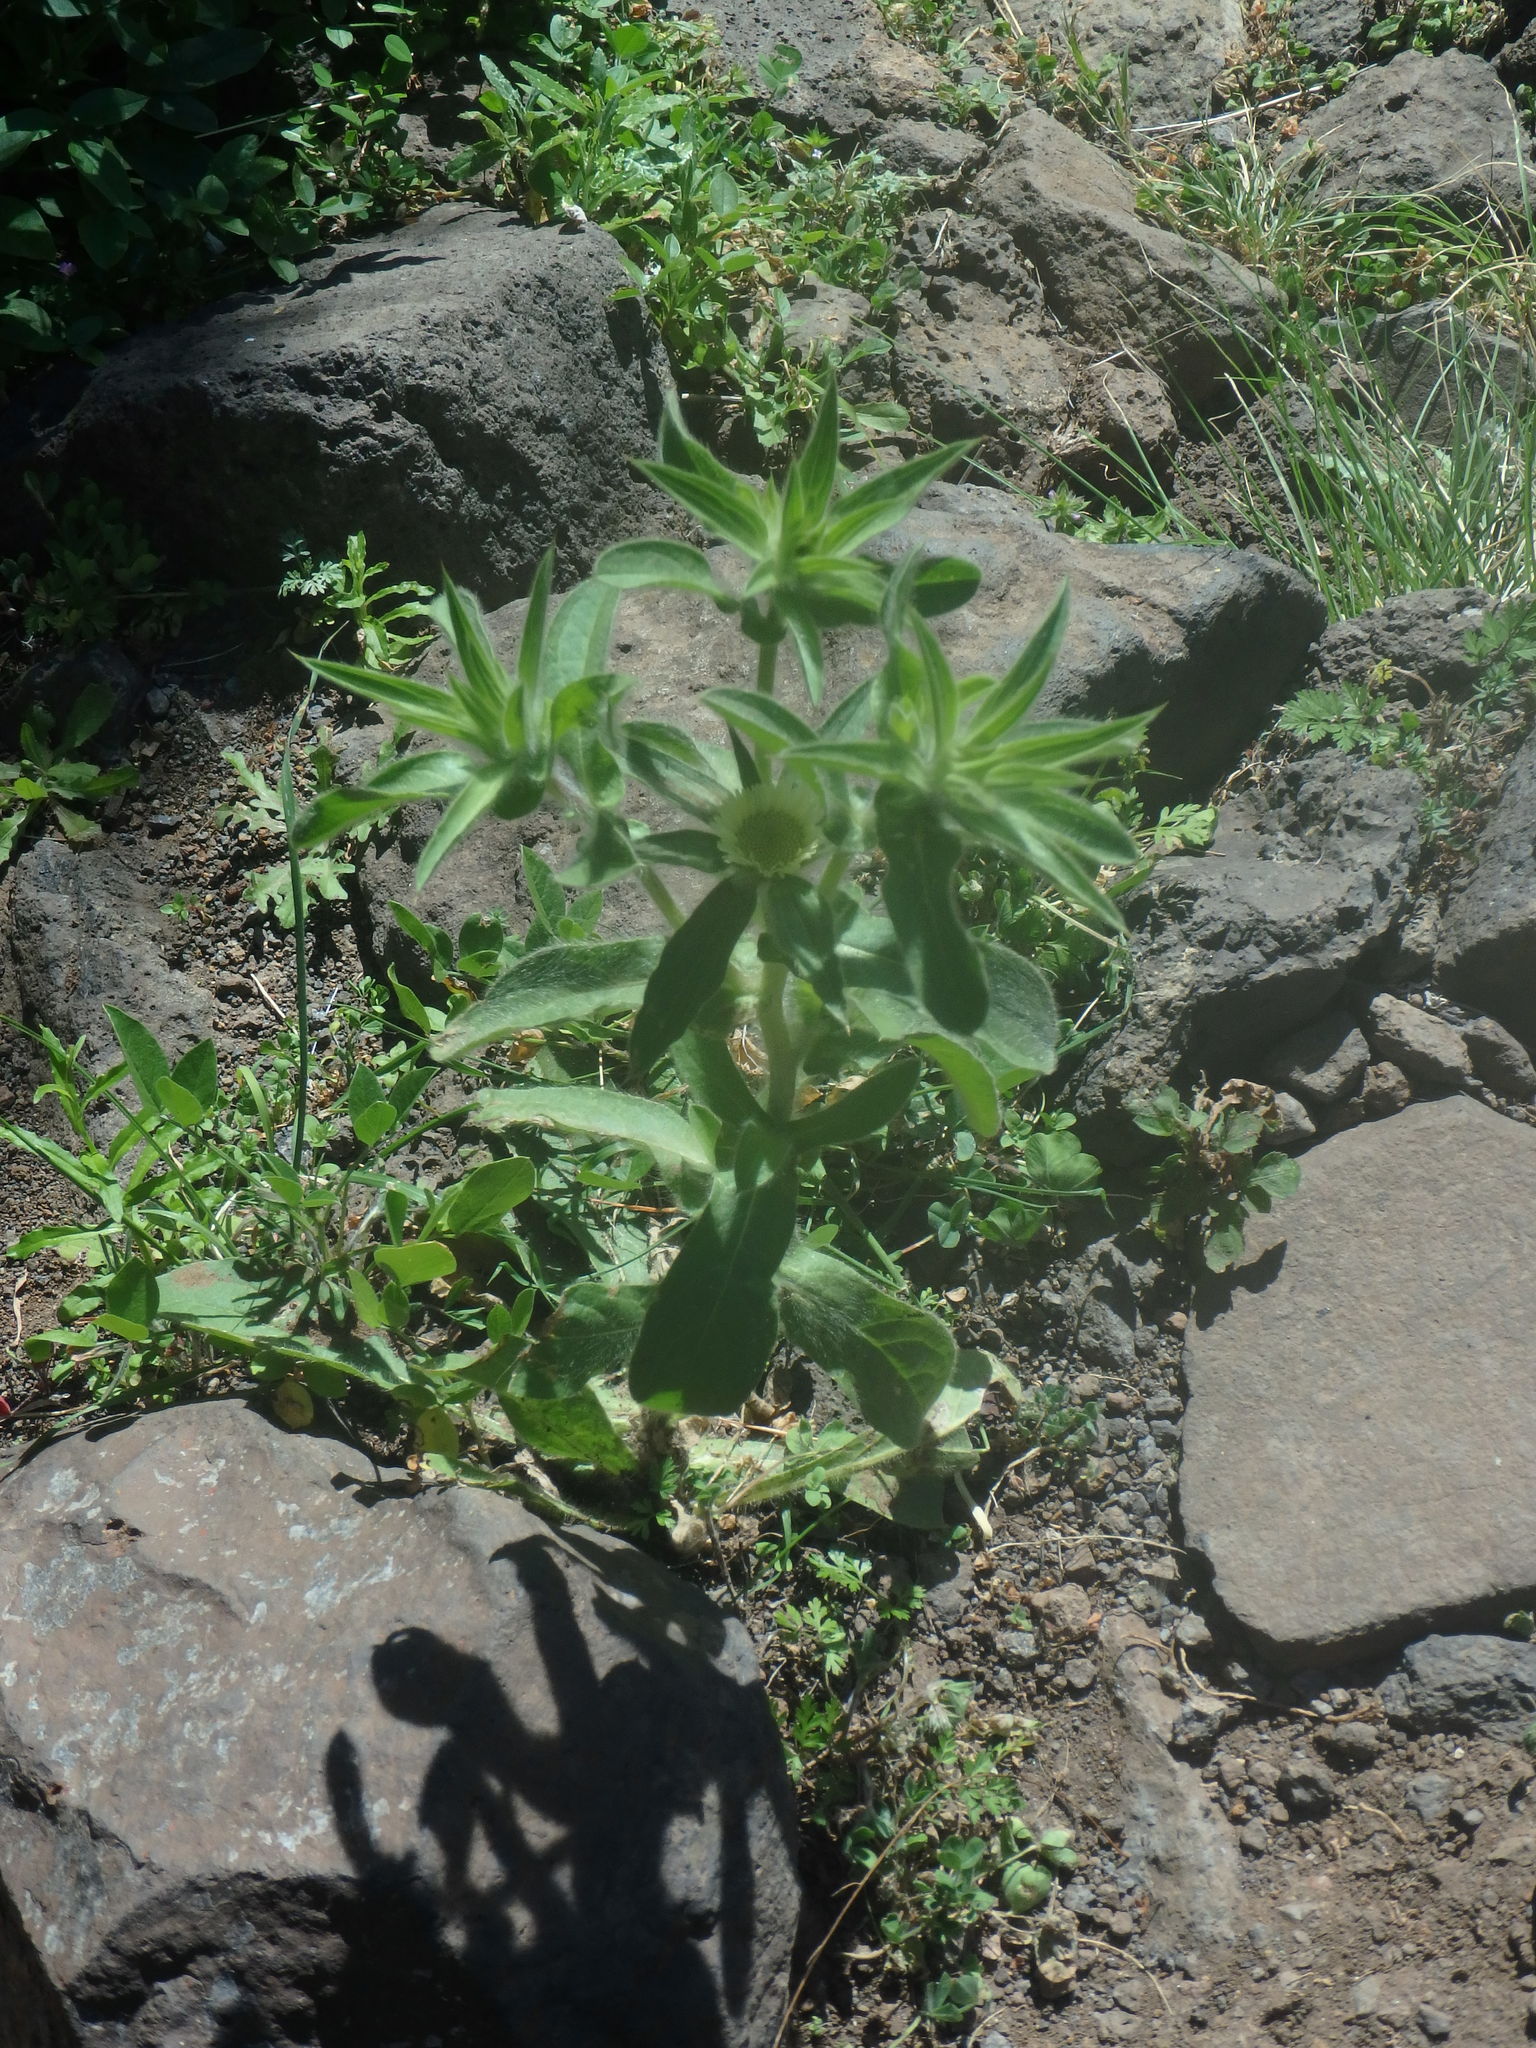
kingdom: Plantae
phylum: Tracheophyta
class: Magnoliopsida
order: Asterales
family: Asteraceae
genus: Asteriscus
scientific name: Asteriscus aquaticus
